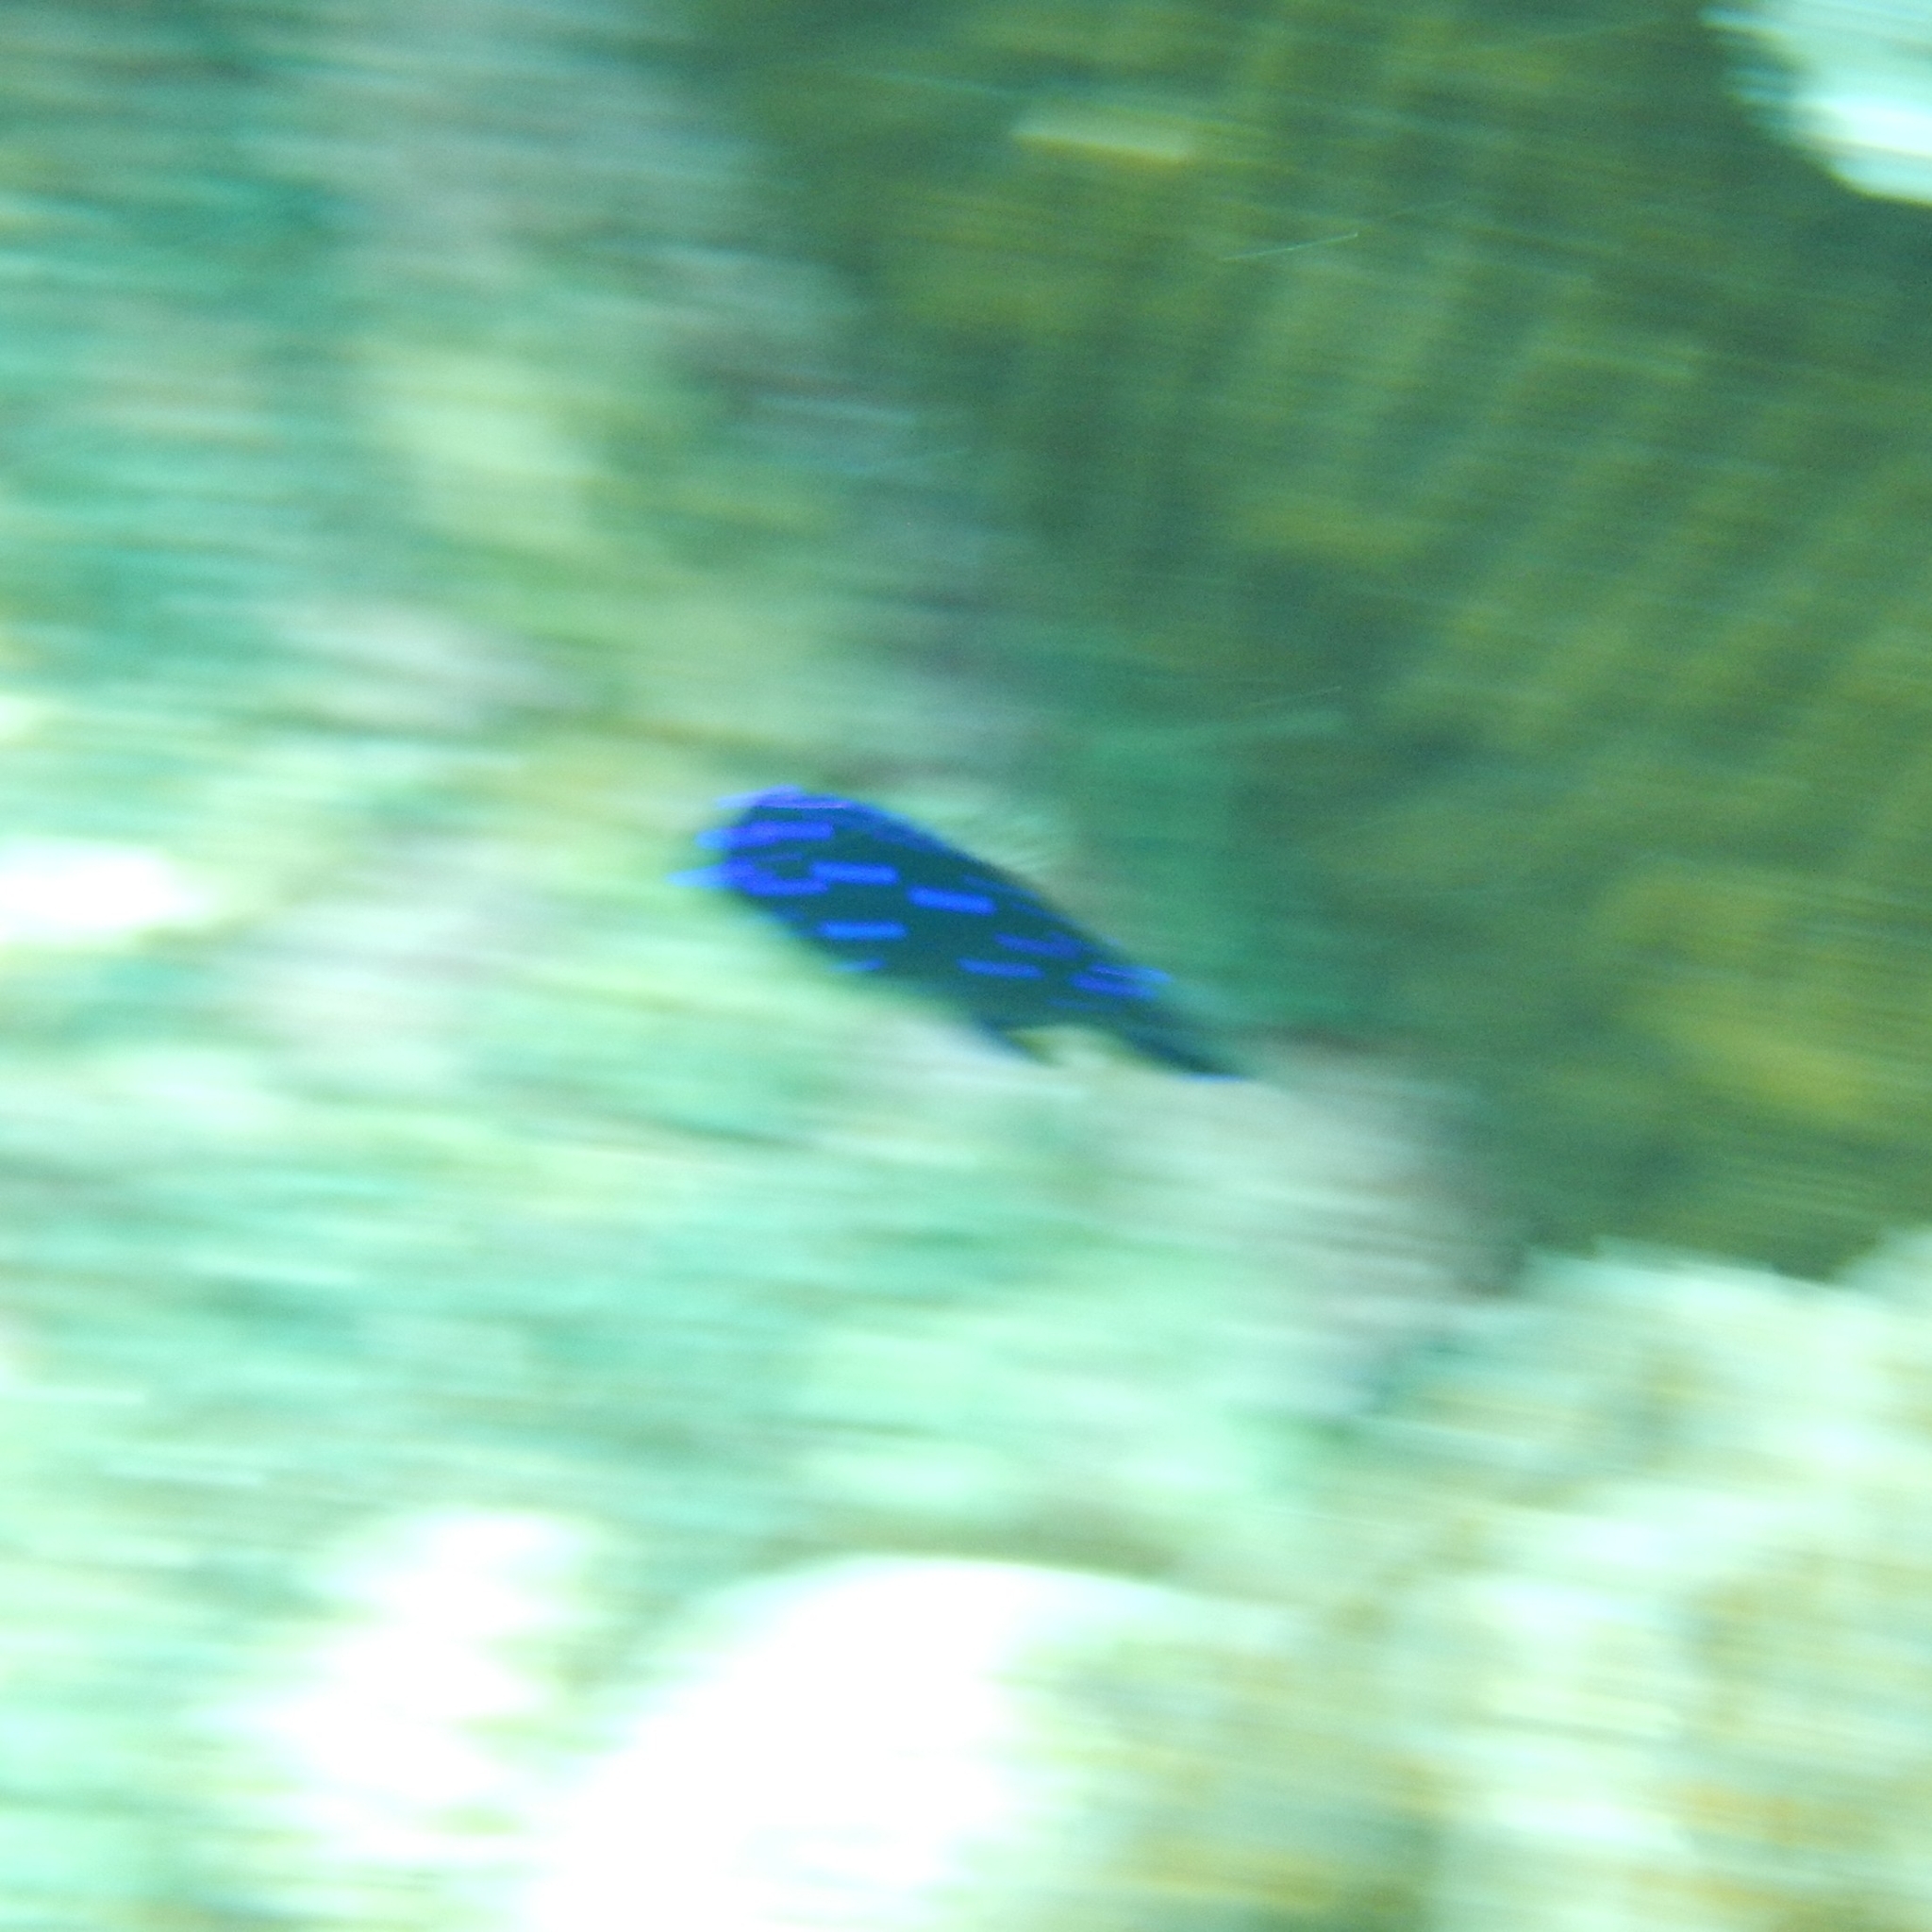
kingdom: Animalia
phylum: Chordata
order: Perciformes
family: Pomacentridae
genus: Microspathodon
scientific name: Microspathodon chrysurus
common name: Yellowtail damselfish
